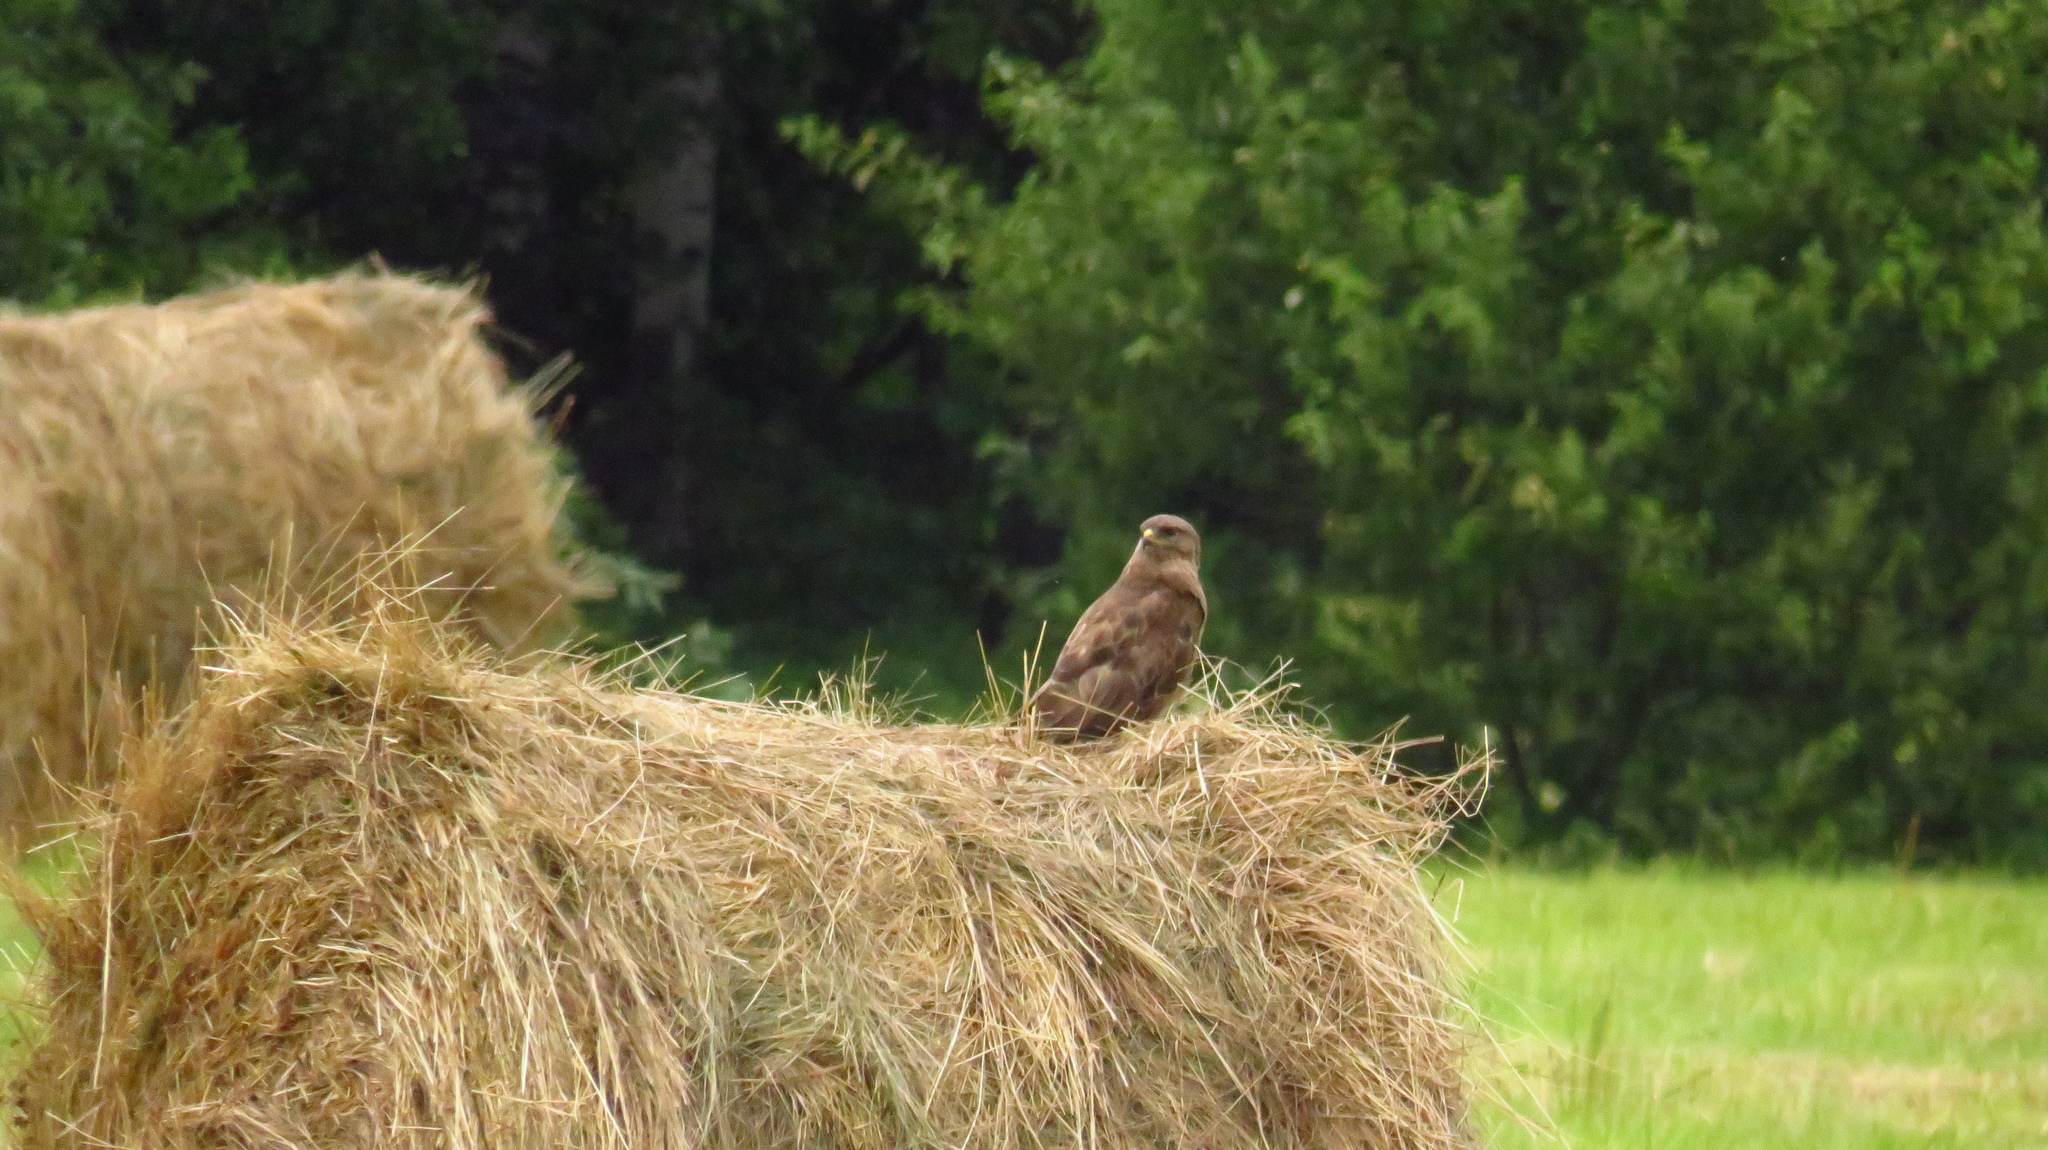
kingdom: Animalia
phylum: Chordata
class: Aves
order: Accipitriformes
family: Accipitridae
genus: Buteo
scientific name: Buteo buteo
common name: Common buzzard
